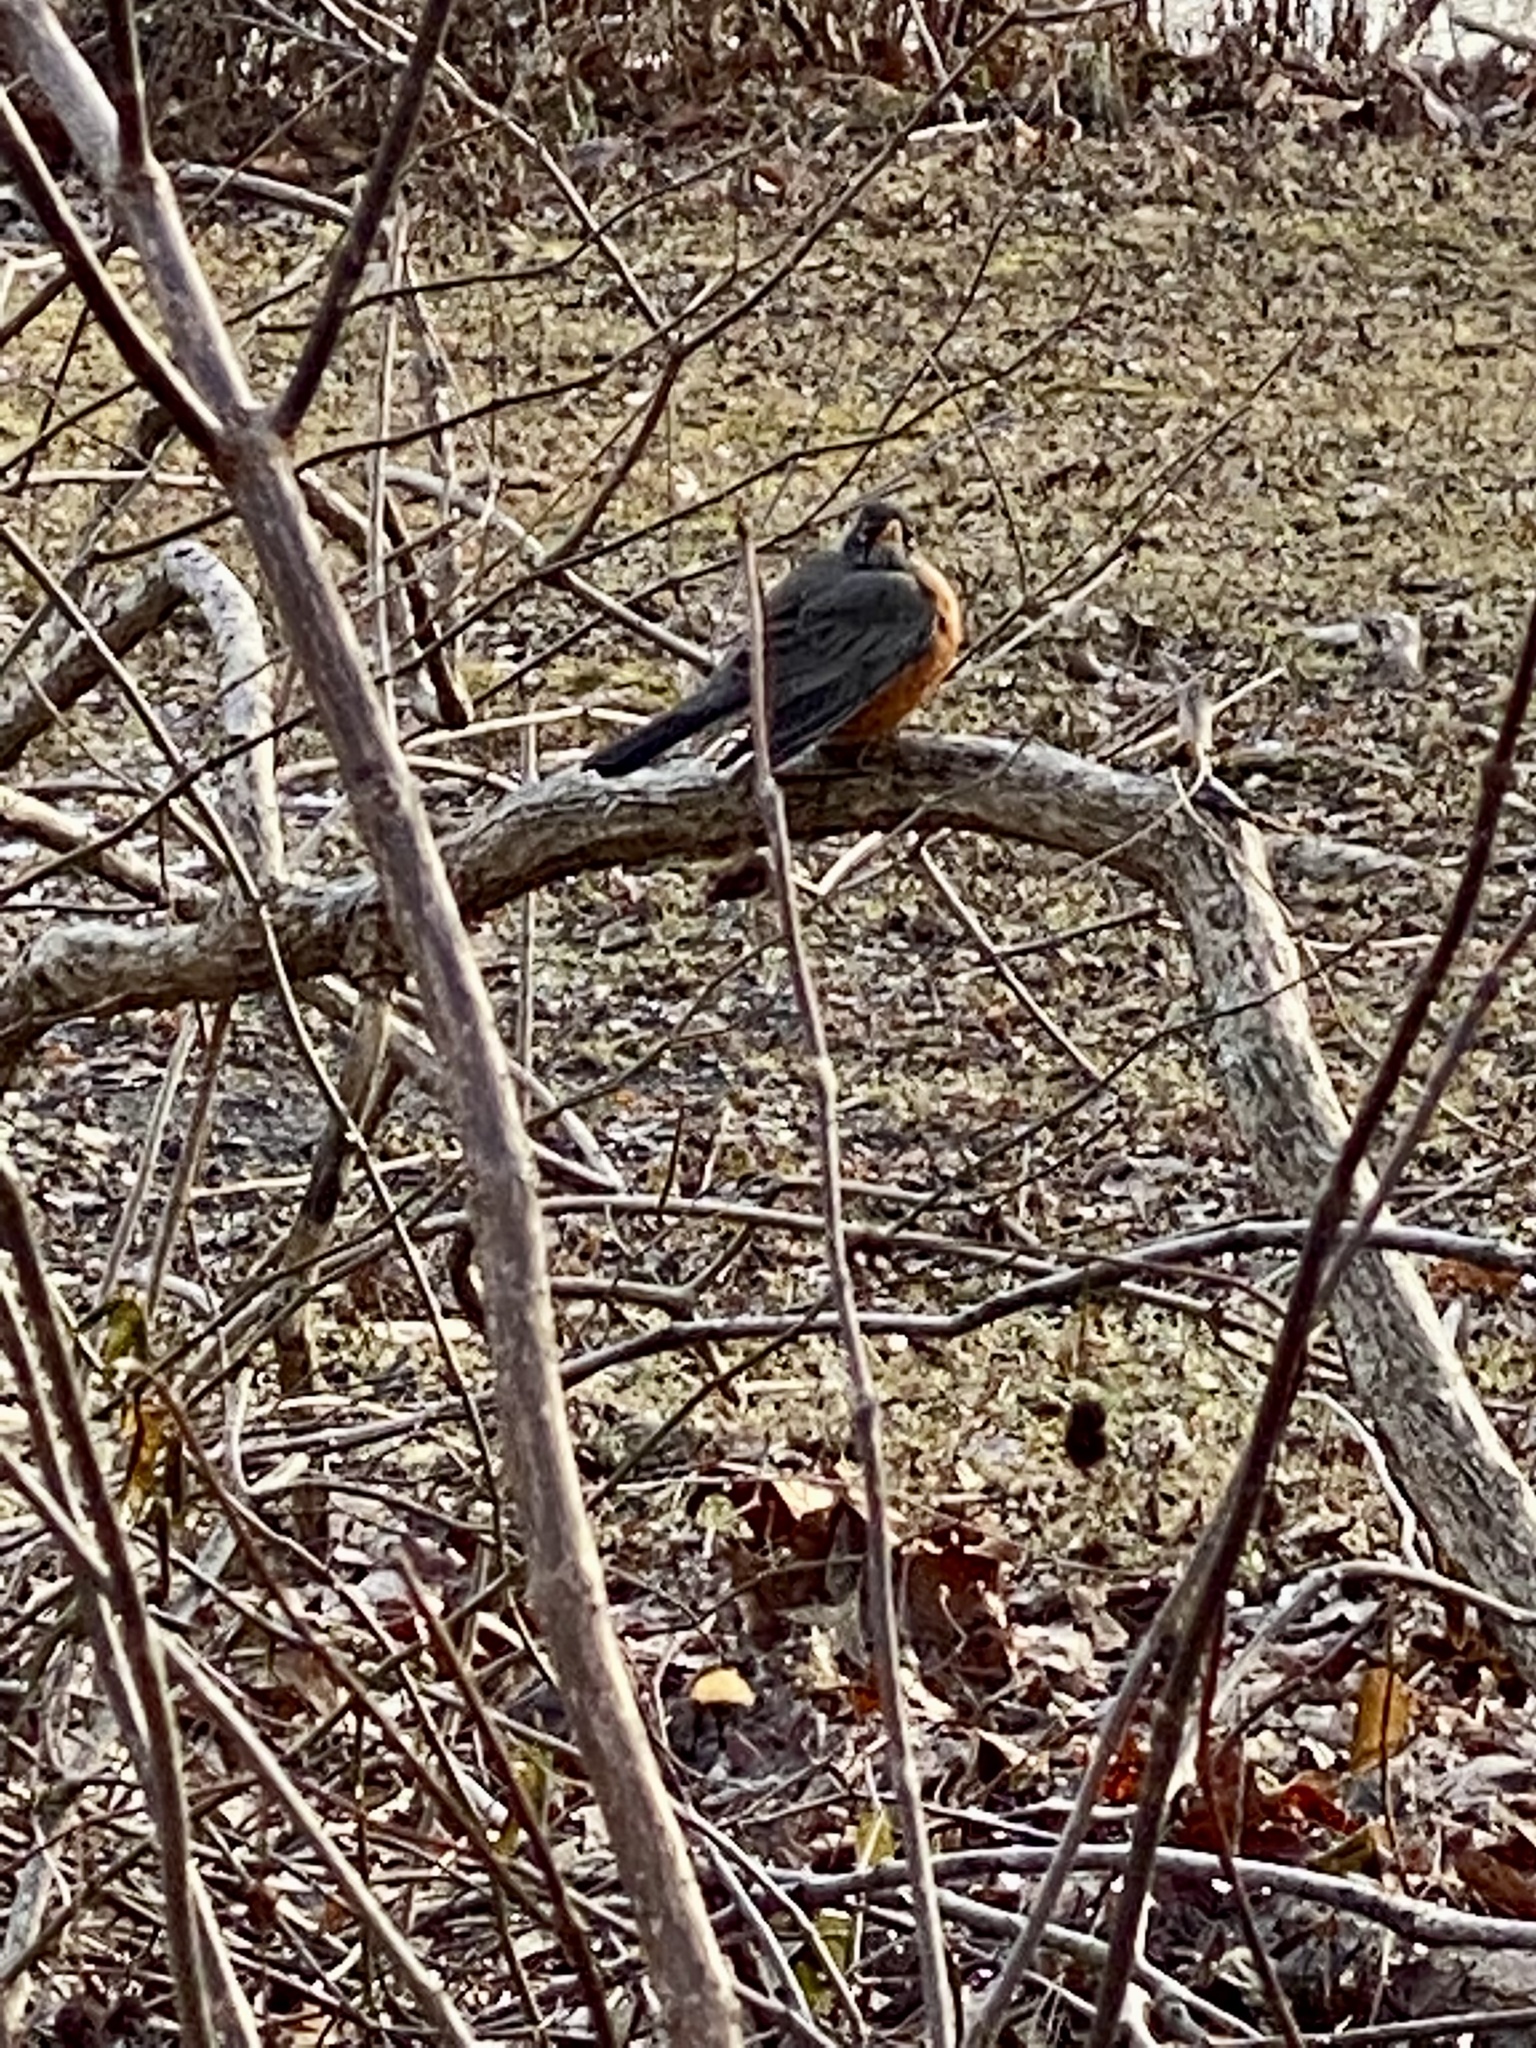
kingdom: Animalia
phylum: Chordata
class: Aves
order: Passeriformes
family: Turdidae
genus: Turdus
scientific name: Turdus migratorius
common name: American robin
